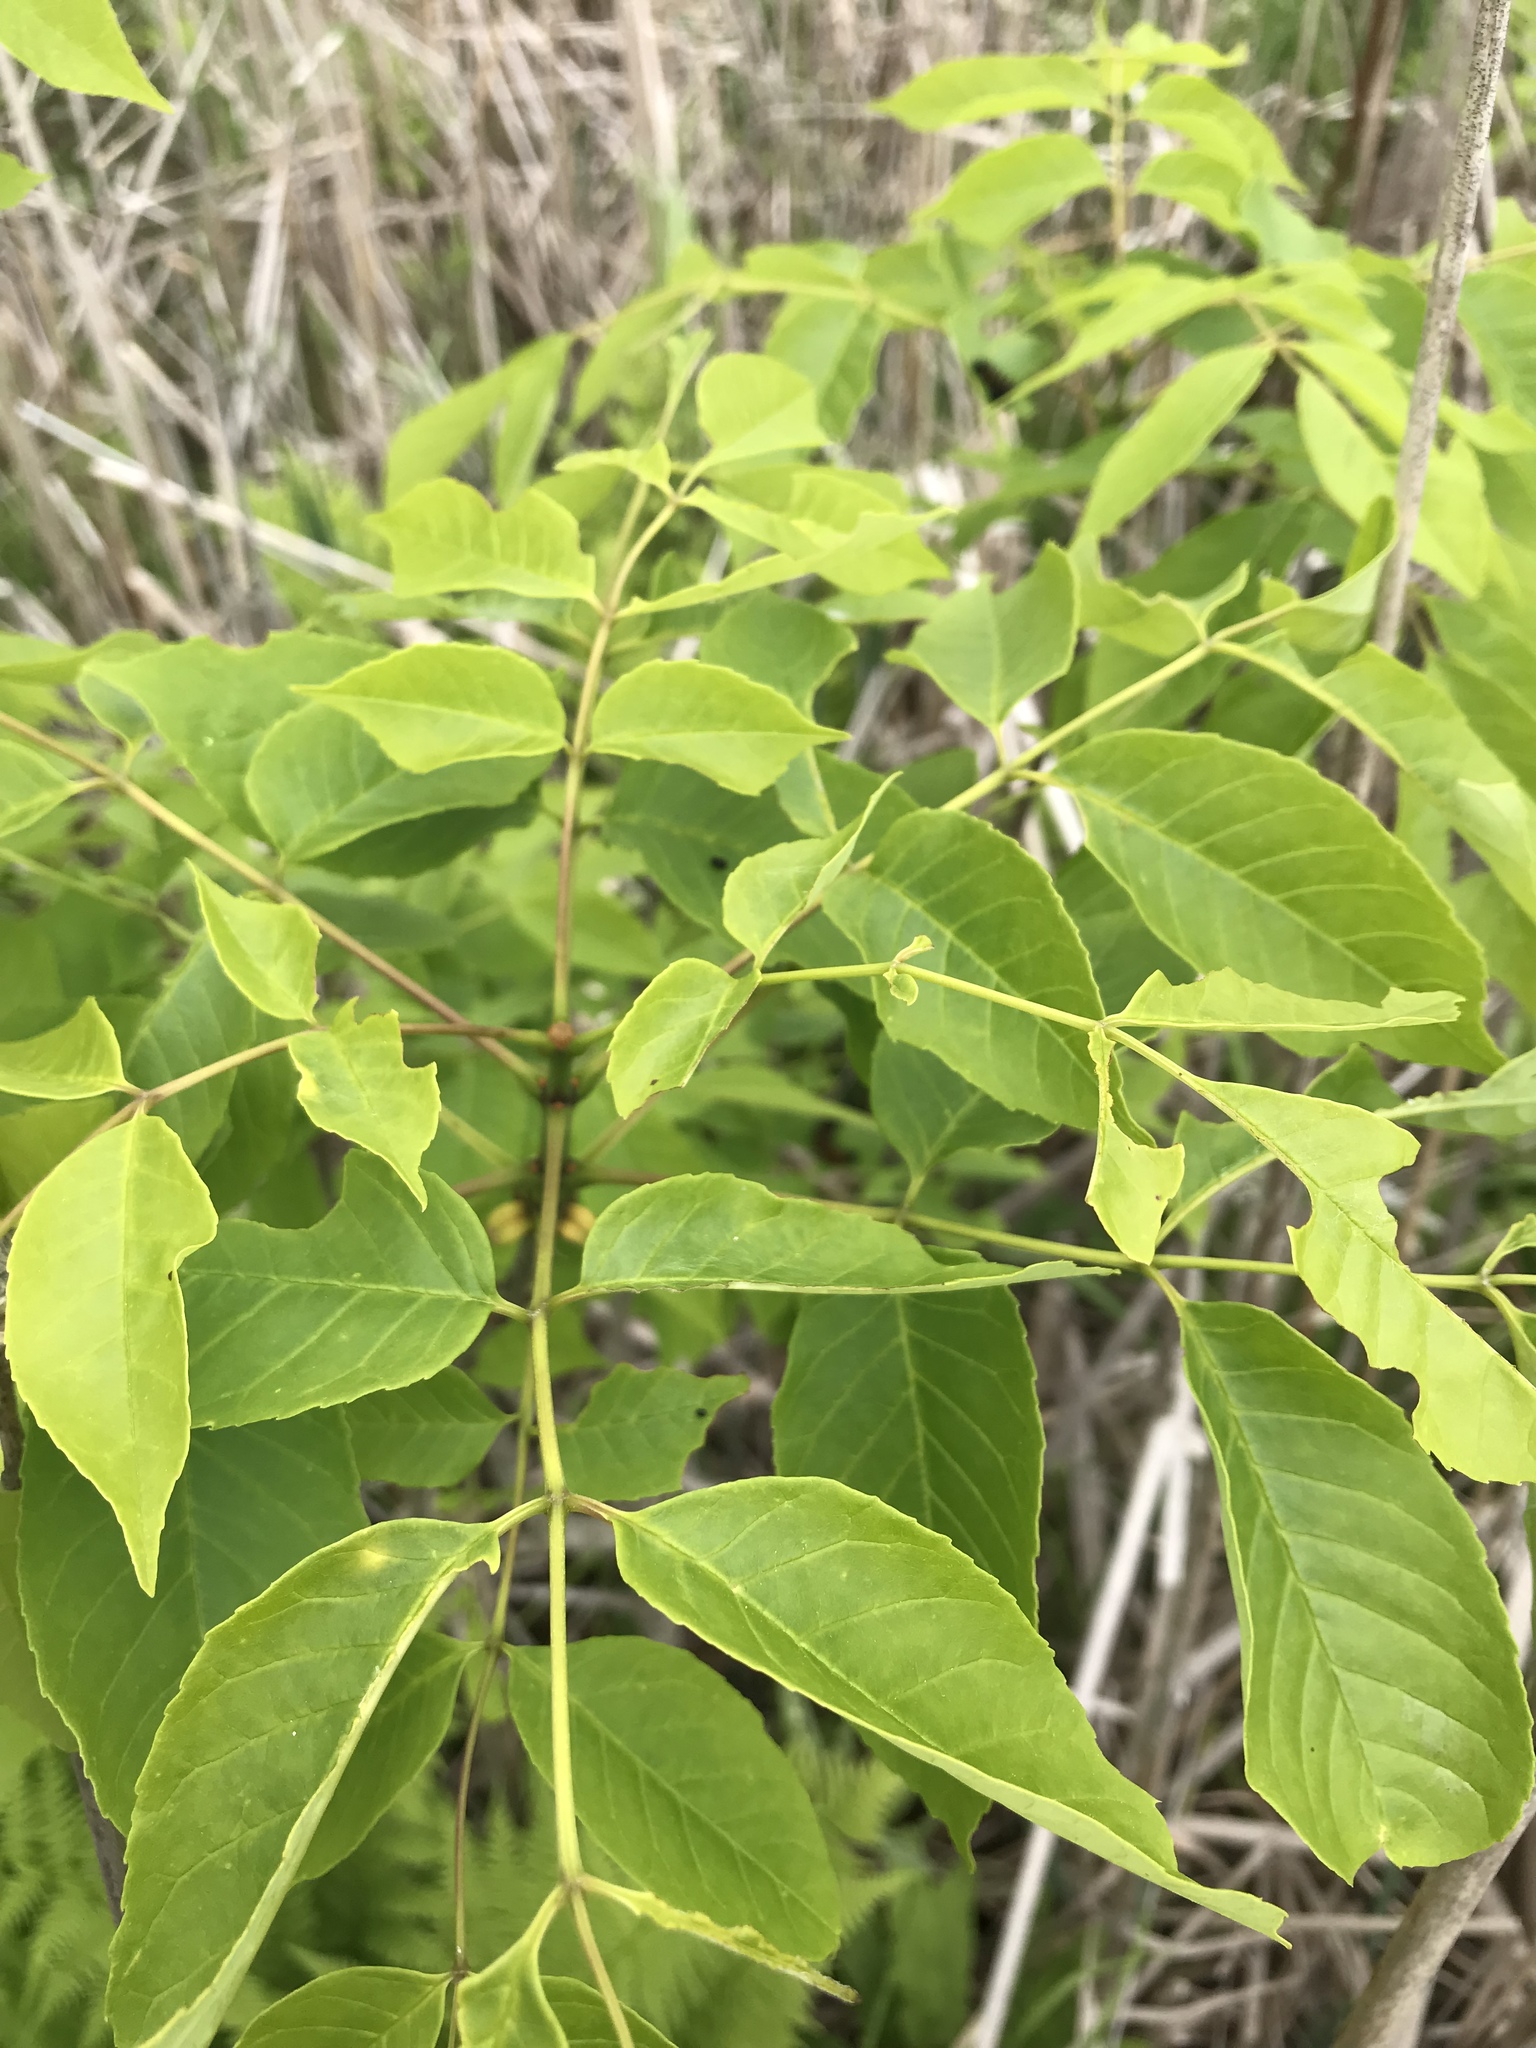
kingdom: Plantae
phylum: Tracheophyta
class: Magnoliopsida
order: Lamiales
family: Oleaceae
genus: Fraxinus
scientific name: Fraxinus americana
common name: White ash
